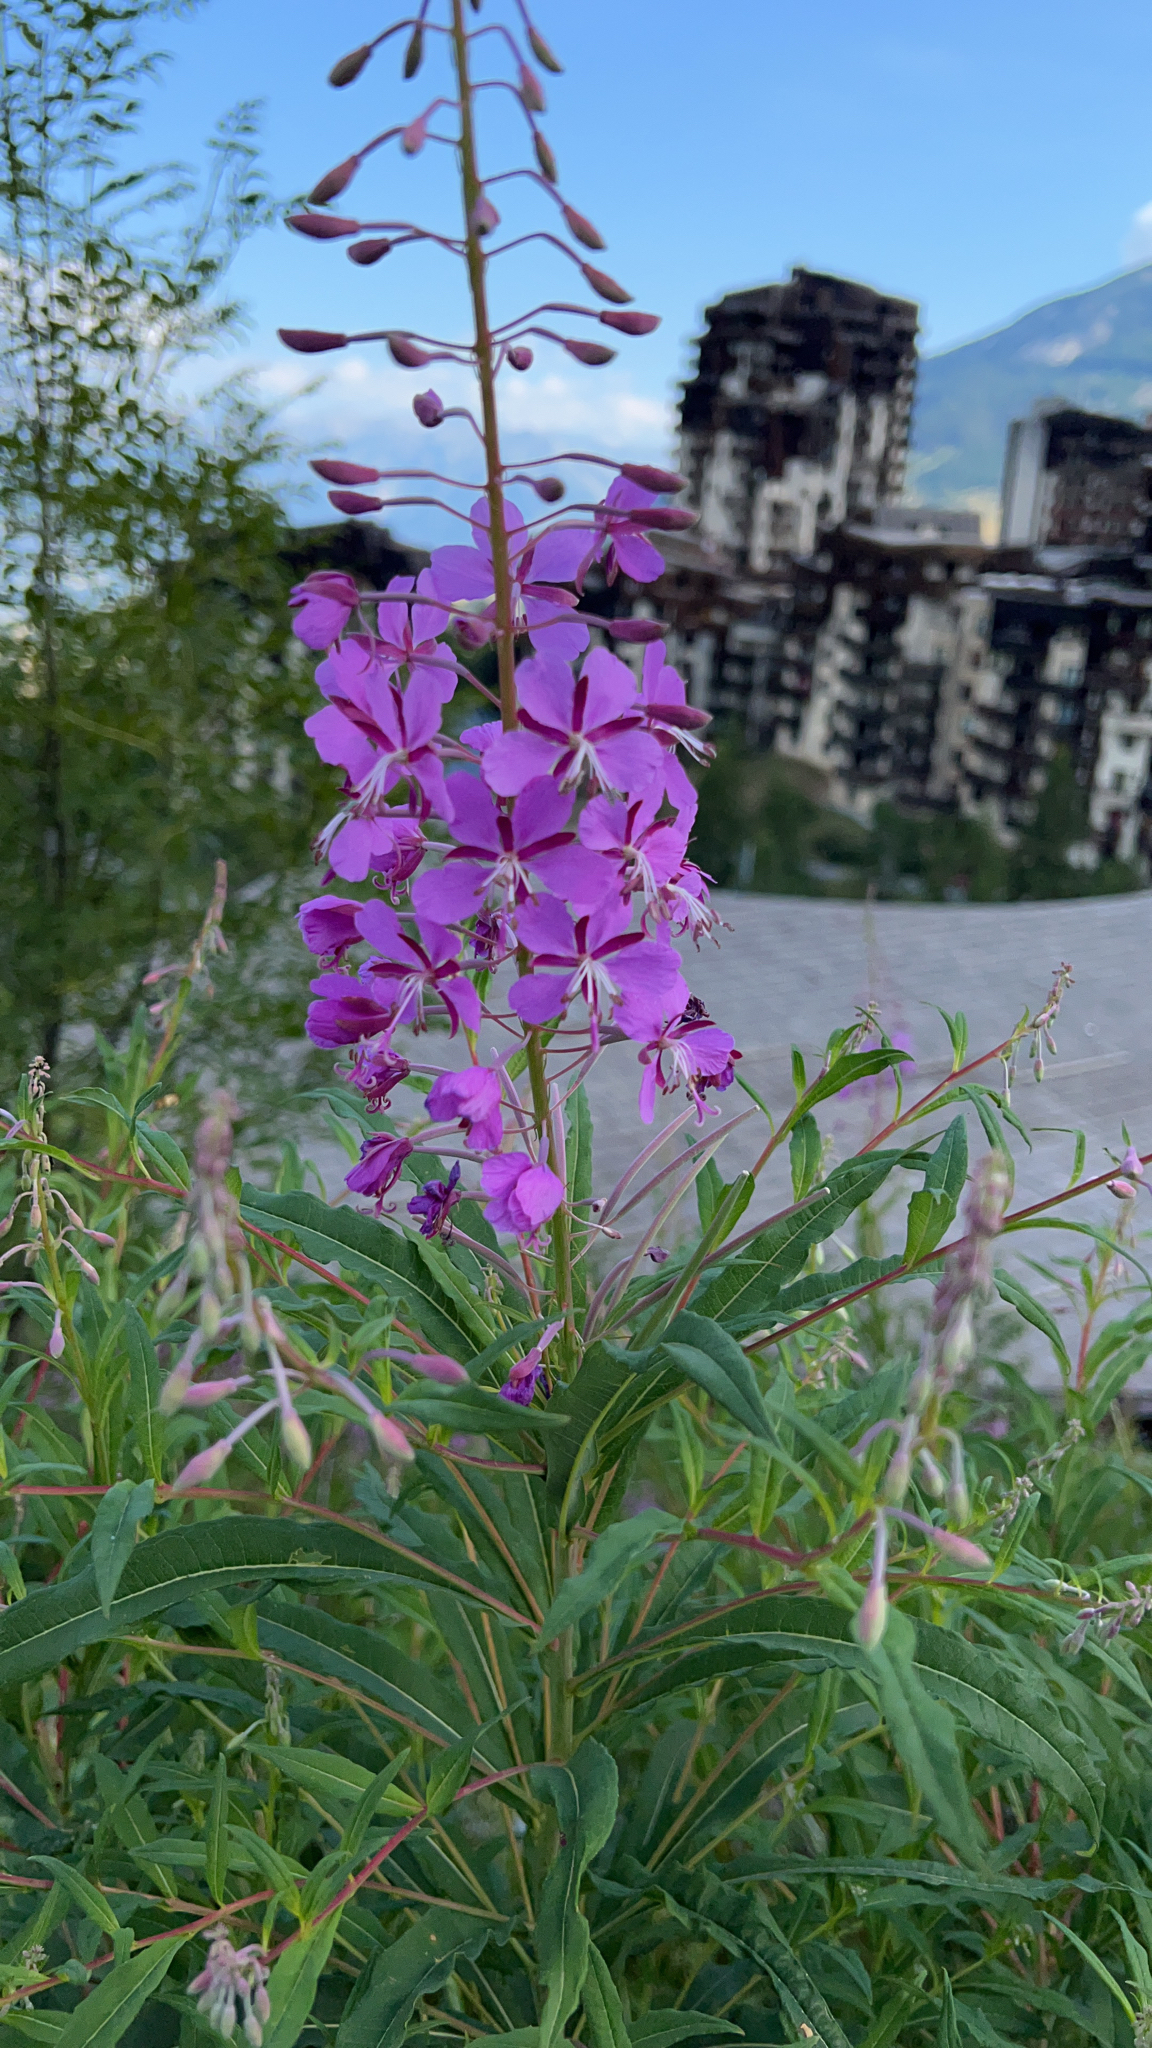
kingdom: Plantae
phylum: Tracheophyta
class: Magnoliopsida
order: Myrtales
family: Onagraceae
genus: Chamaenerion
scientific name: Chamaenerion angustifolium
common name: Fireweed
